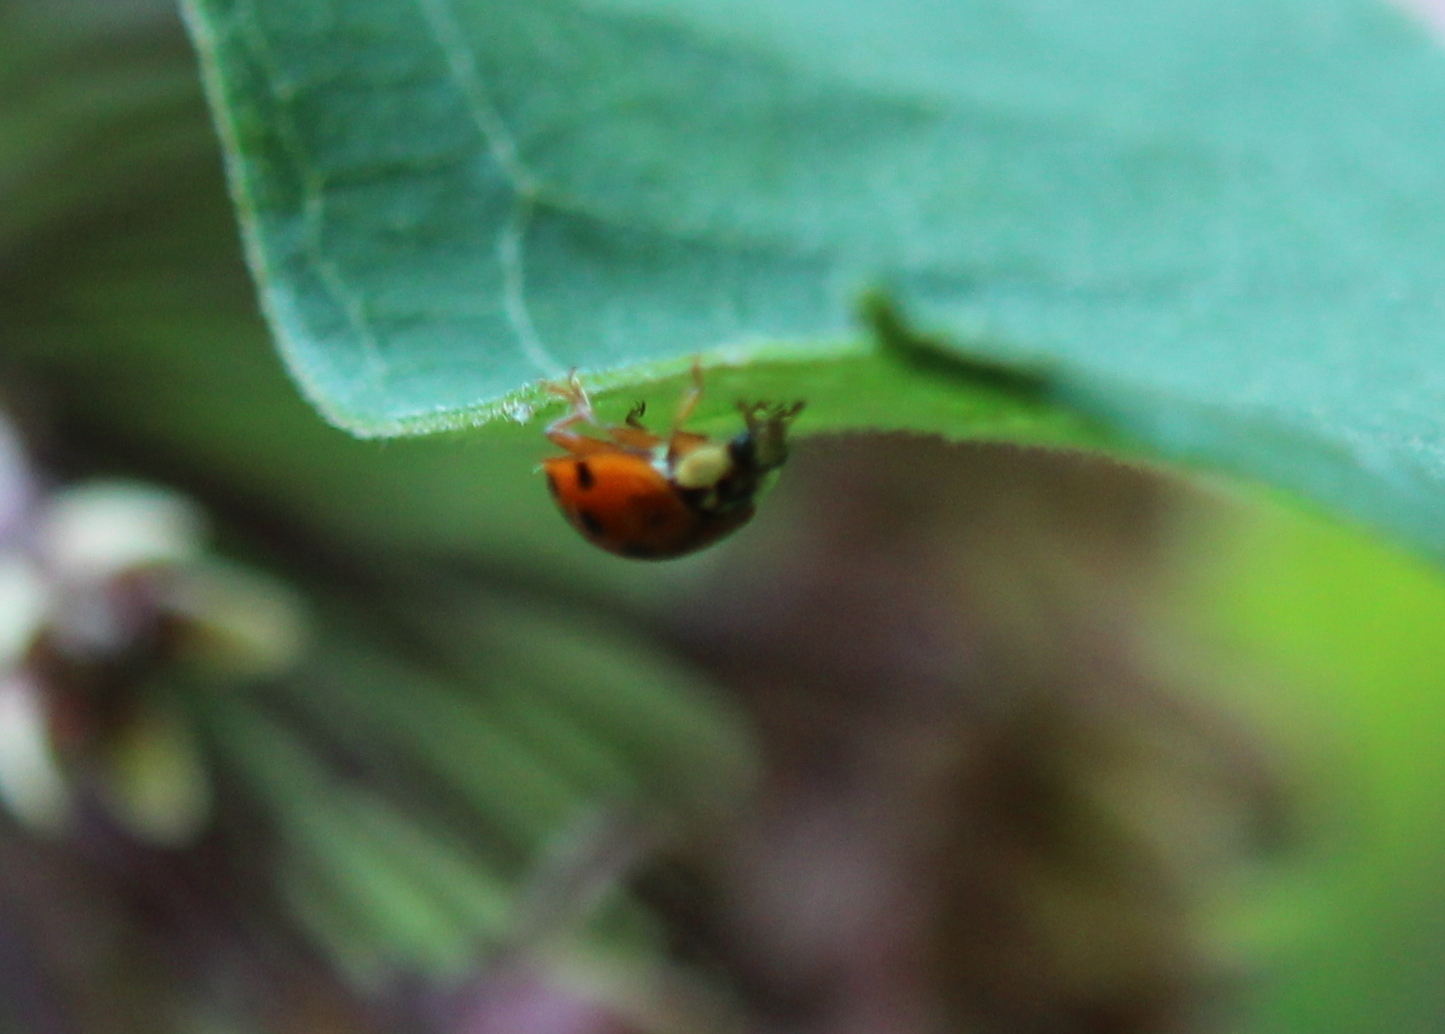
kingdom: Animalia
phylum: Arthropoda
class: Insecta
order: Coleoptera
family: Coccinellidae
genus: Harmonia
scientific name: Harmonia axyridis
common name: Harlequin ladybird
